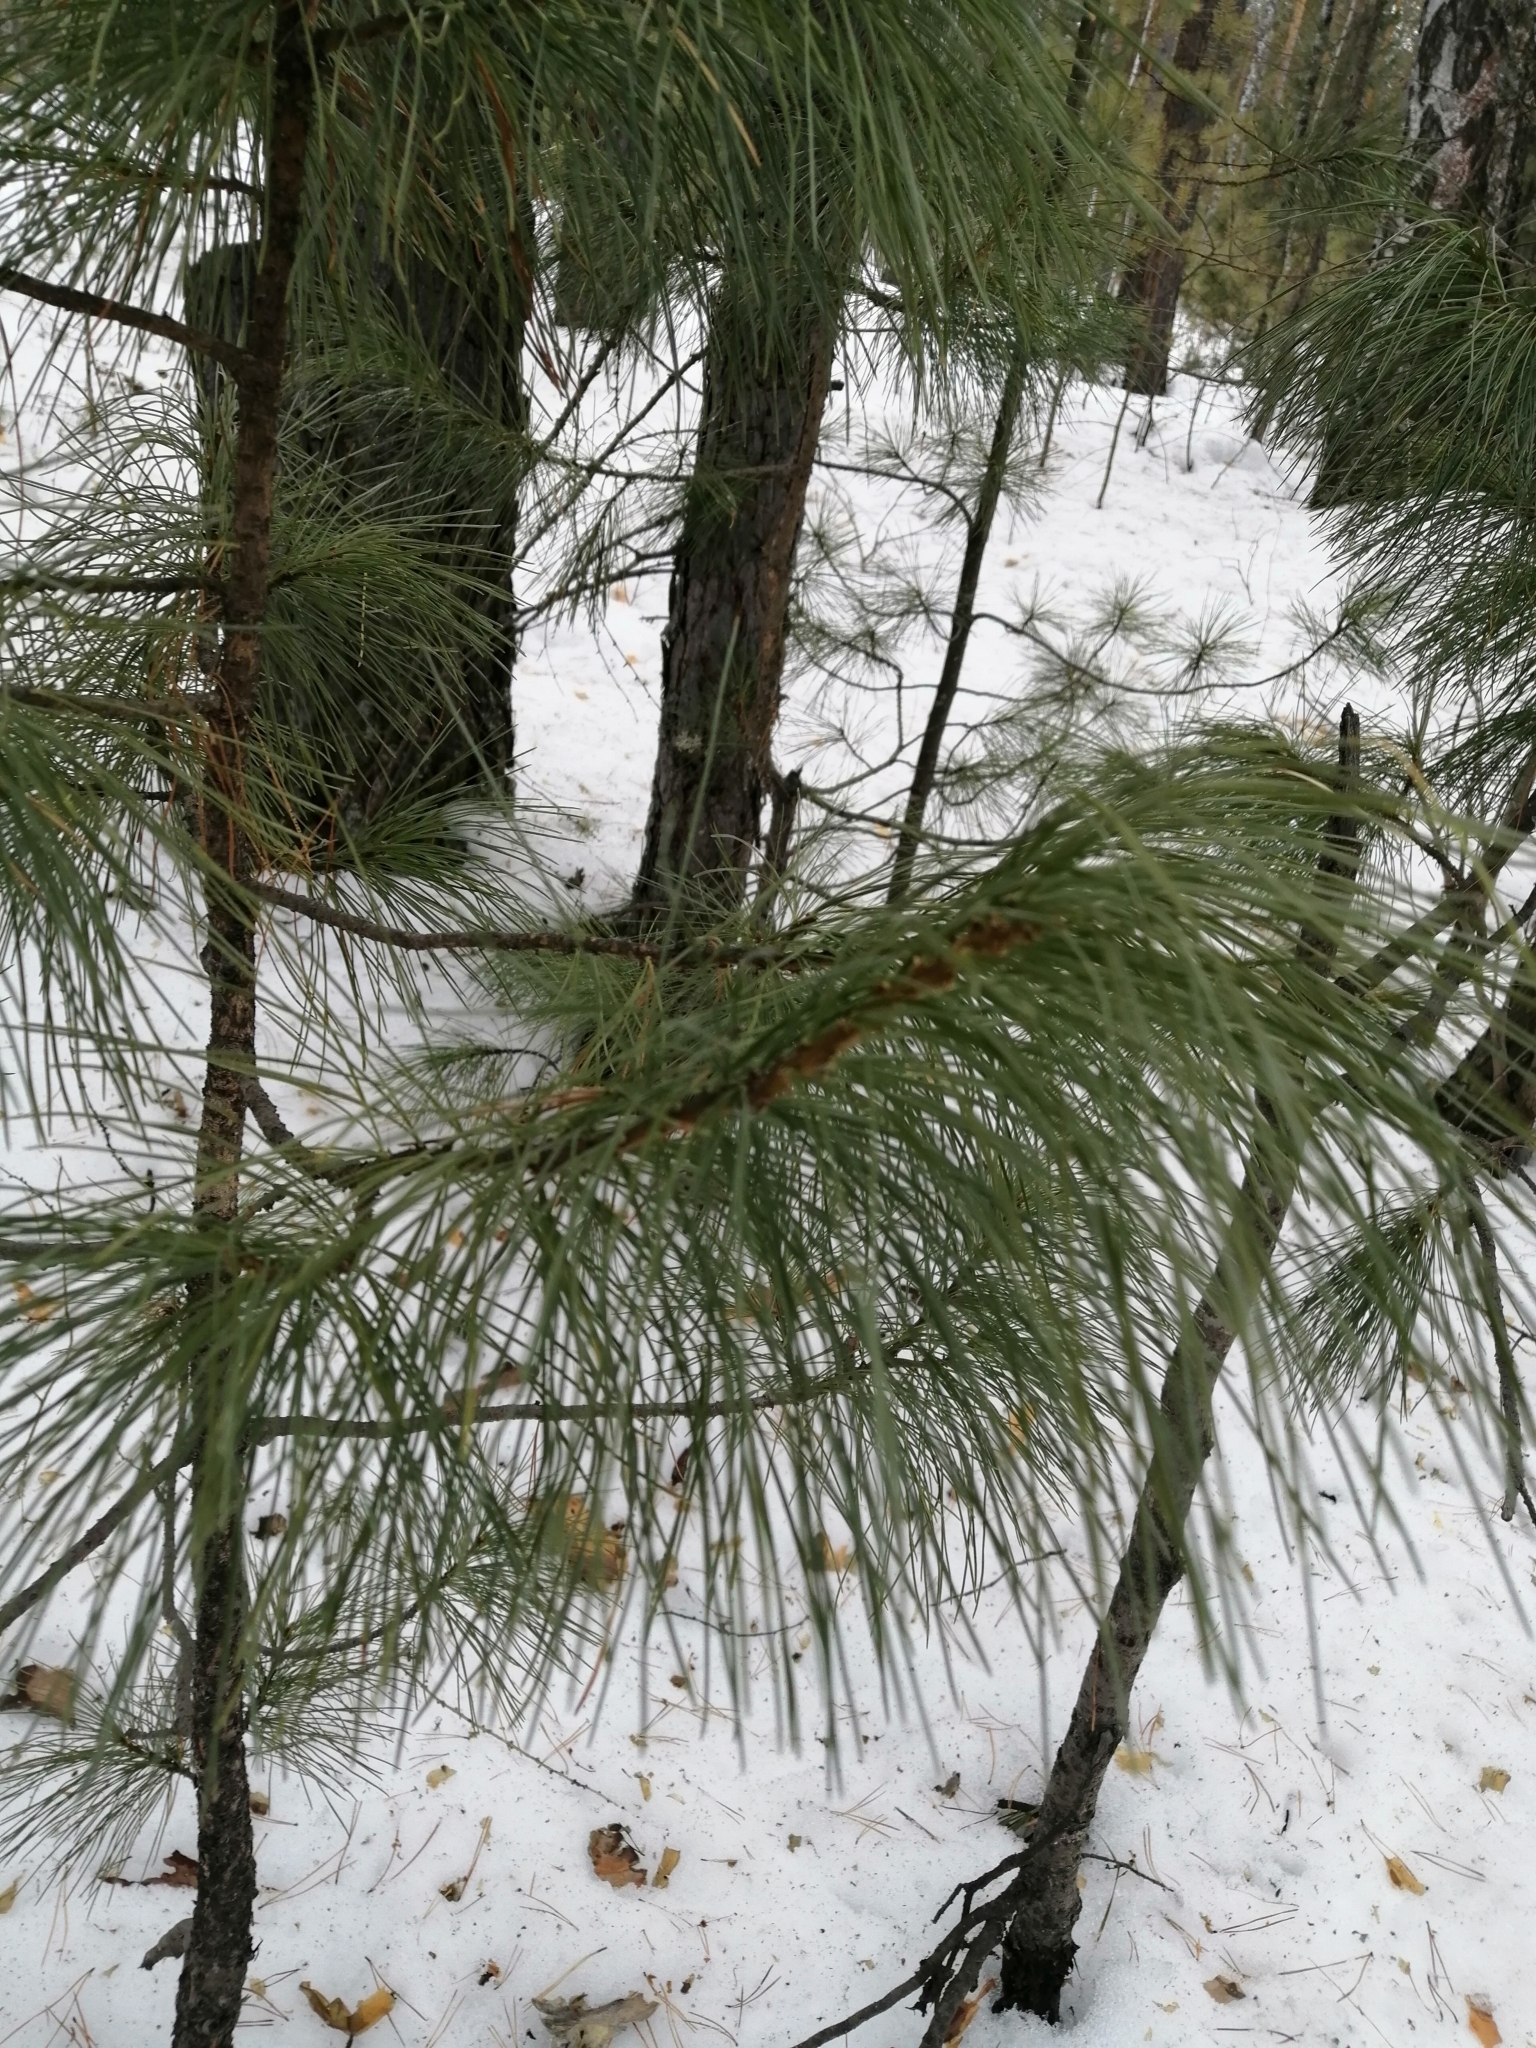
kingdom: Plantae
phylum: Tracheophyta
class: Pinopsida
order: Pinales
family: Pinaceae
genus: Pinus
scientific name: Pinus sibirica
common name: Siberian pine
